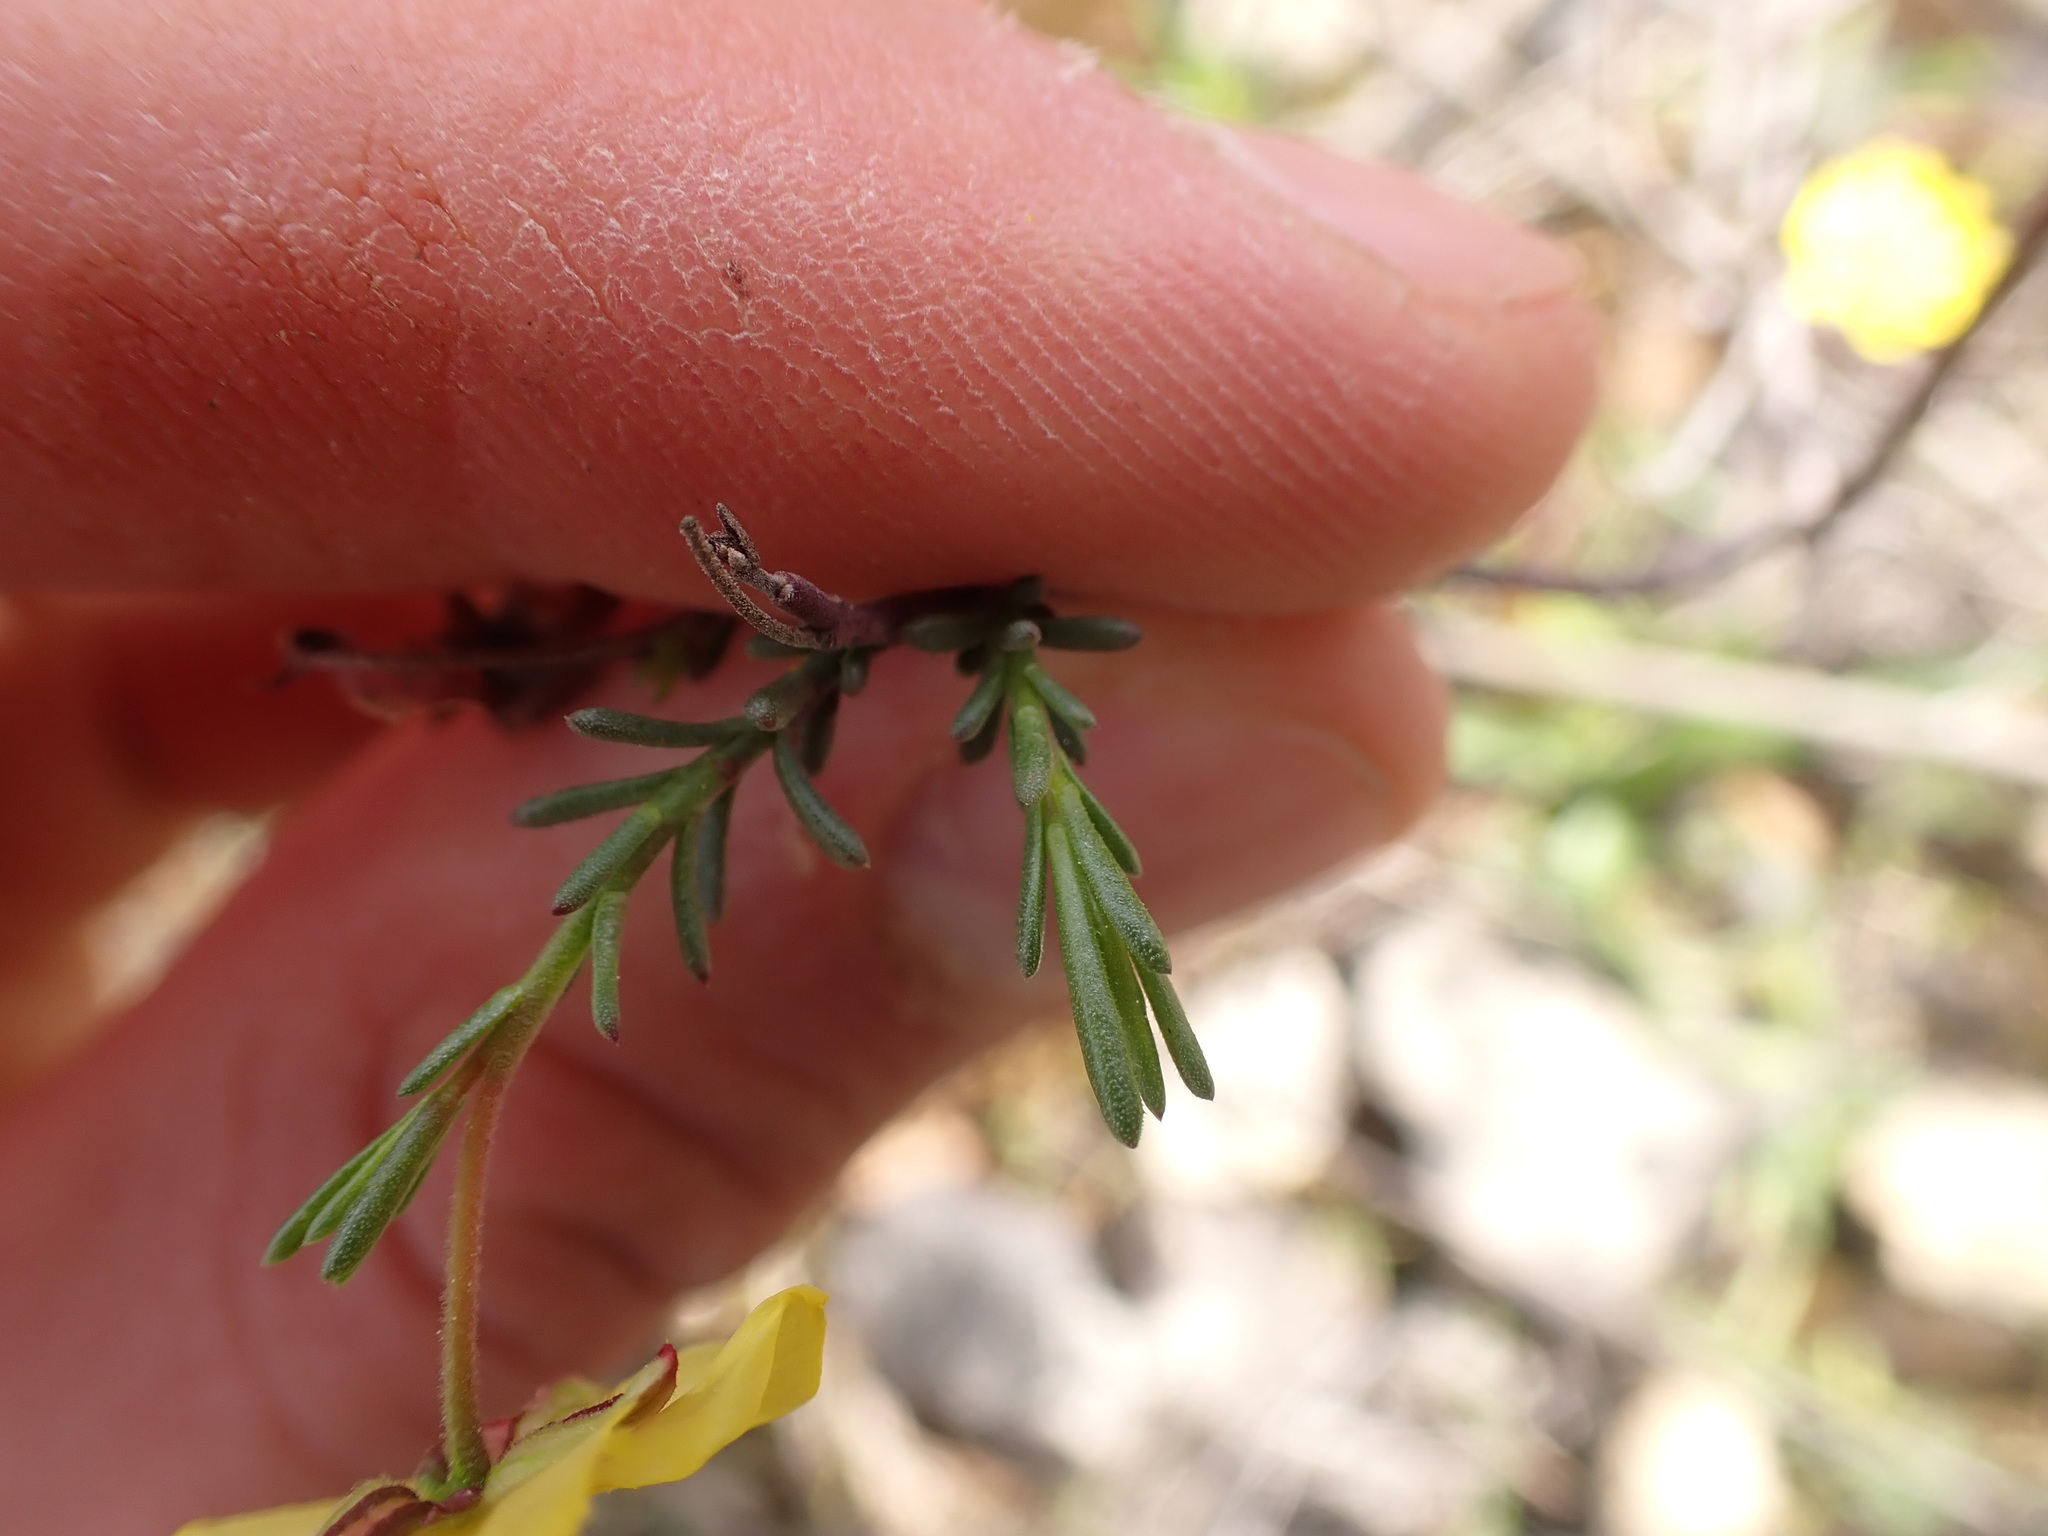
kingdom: Plantae
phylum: Tracheophyta
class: Magnoliopsida
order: Malvales
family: Cistaceae
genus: Fumana
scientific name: Fumana ericifolia
